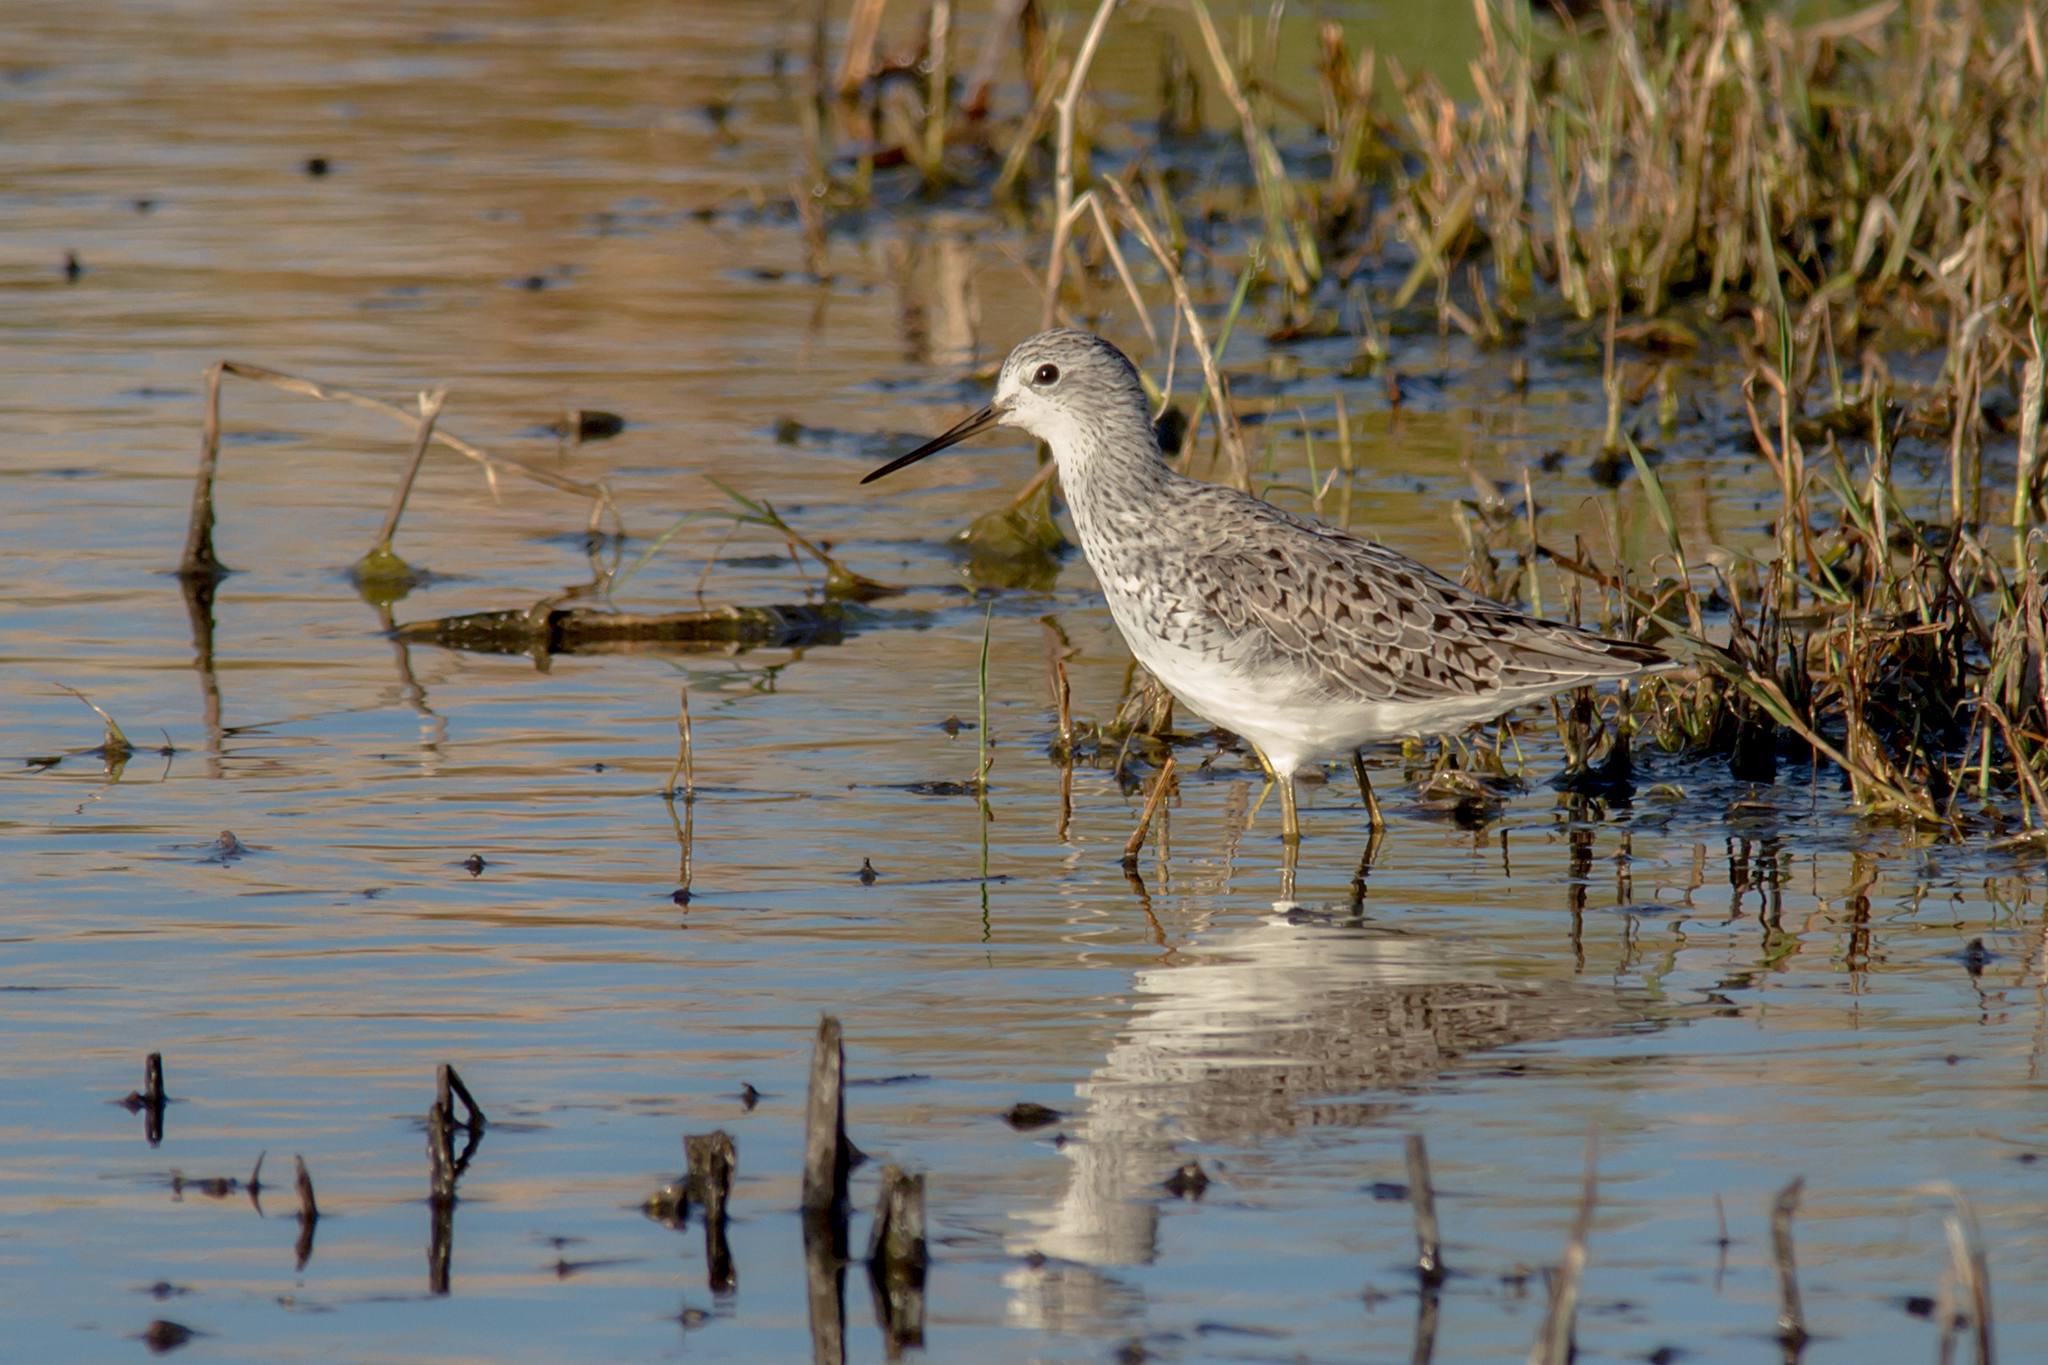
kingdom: Animalia
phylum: Chordata
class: Aves
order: Charadriiformes
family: Scolopacidae
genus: Tringa
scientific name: Tringa stagnatilis
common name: Marsh sandpiper
